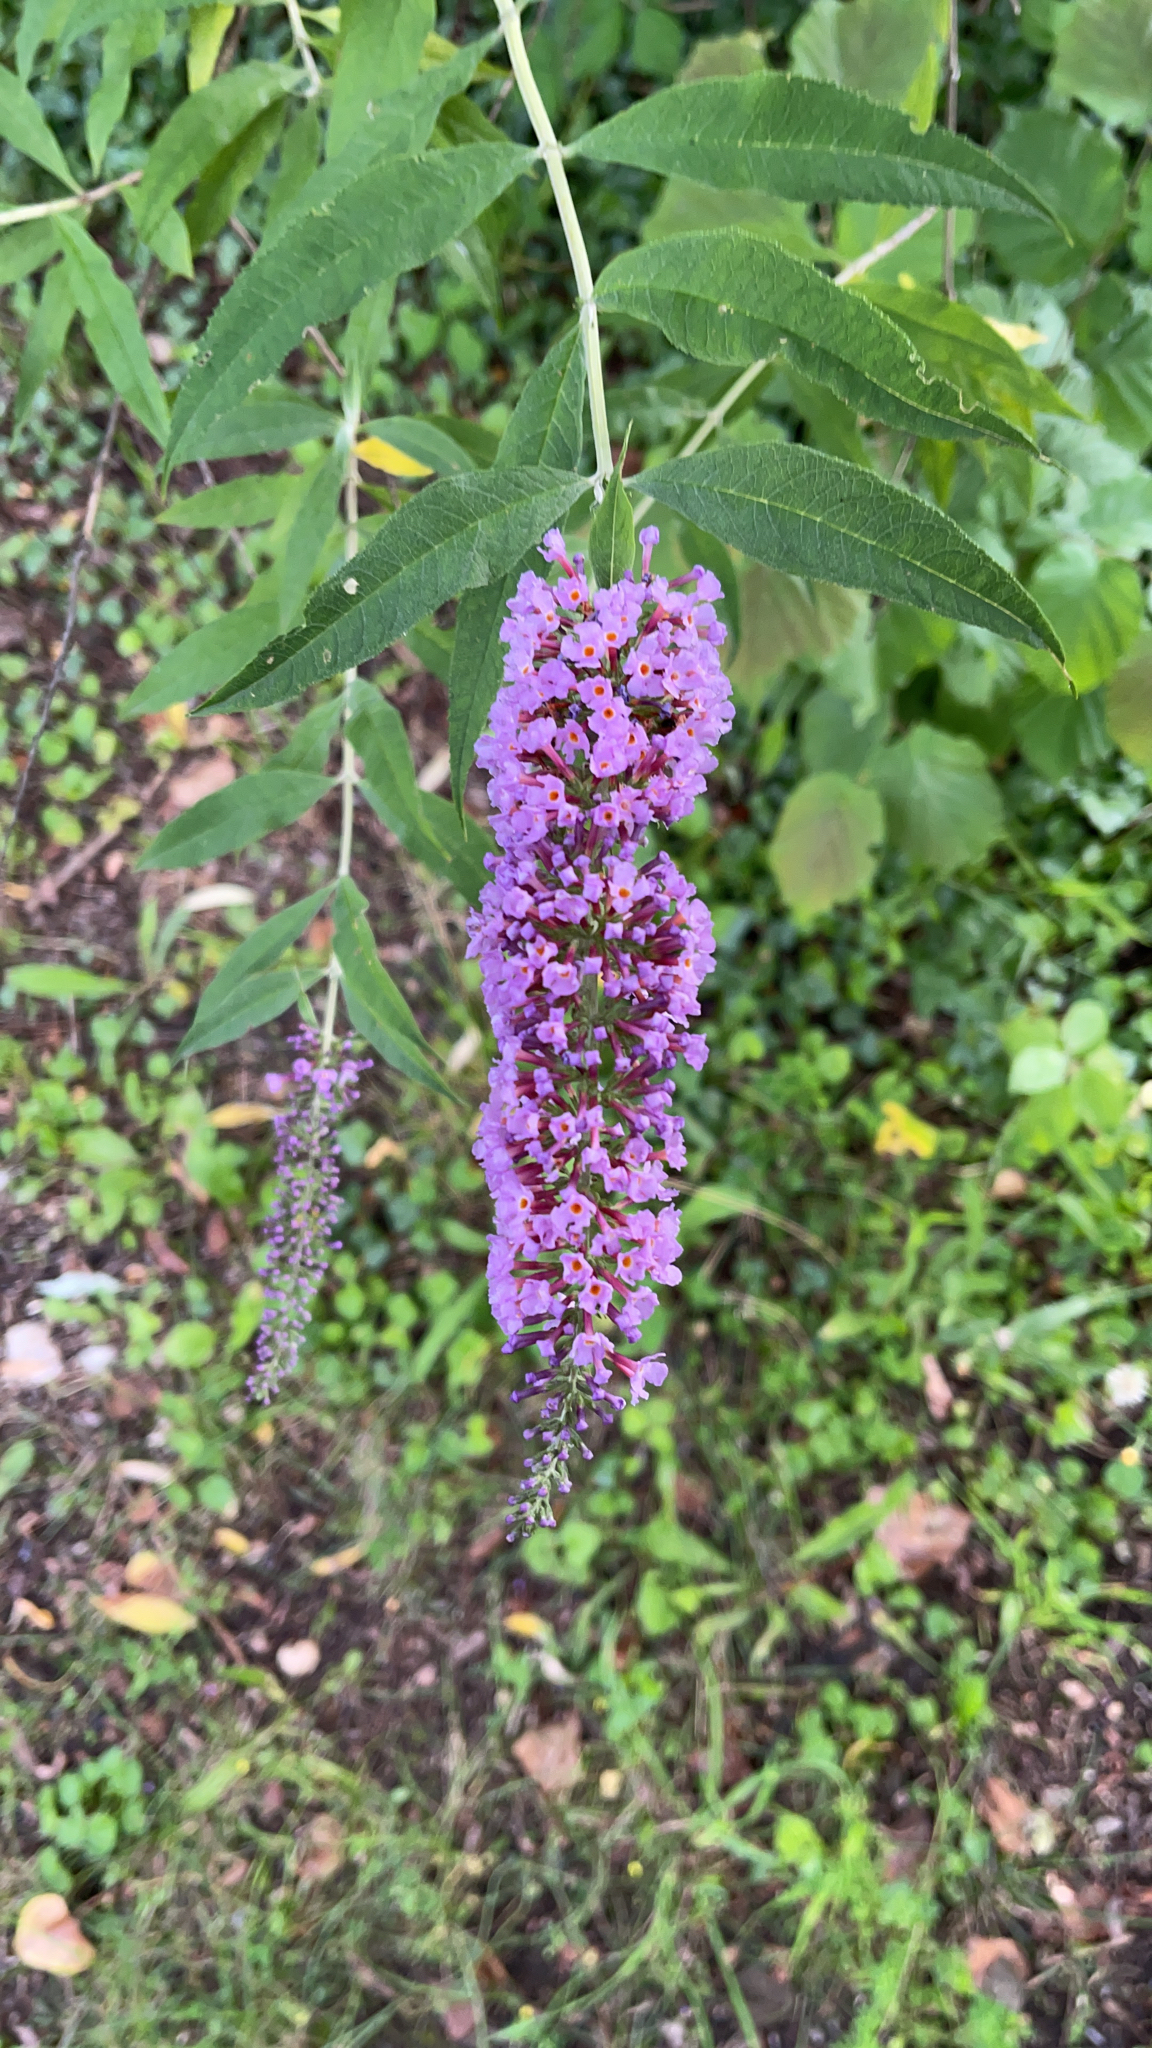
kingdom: Plantae
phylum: Tracheophyta
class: Magnoliopsida
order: Lamiales
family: Scrophulariaceae
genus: Buddleja
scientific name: Buddleja davidii
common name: Butterfly-bush
